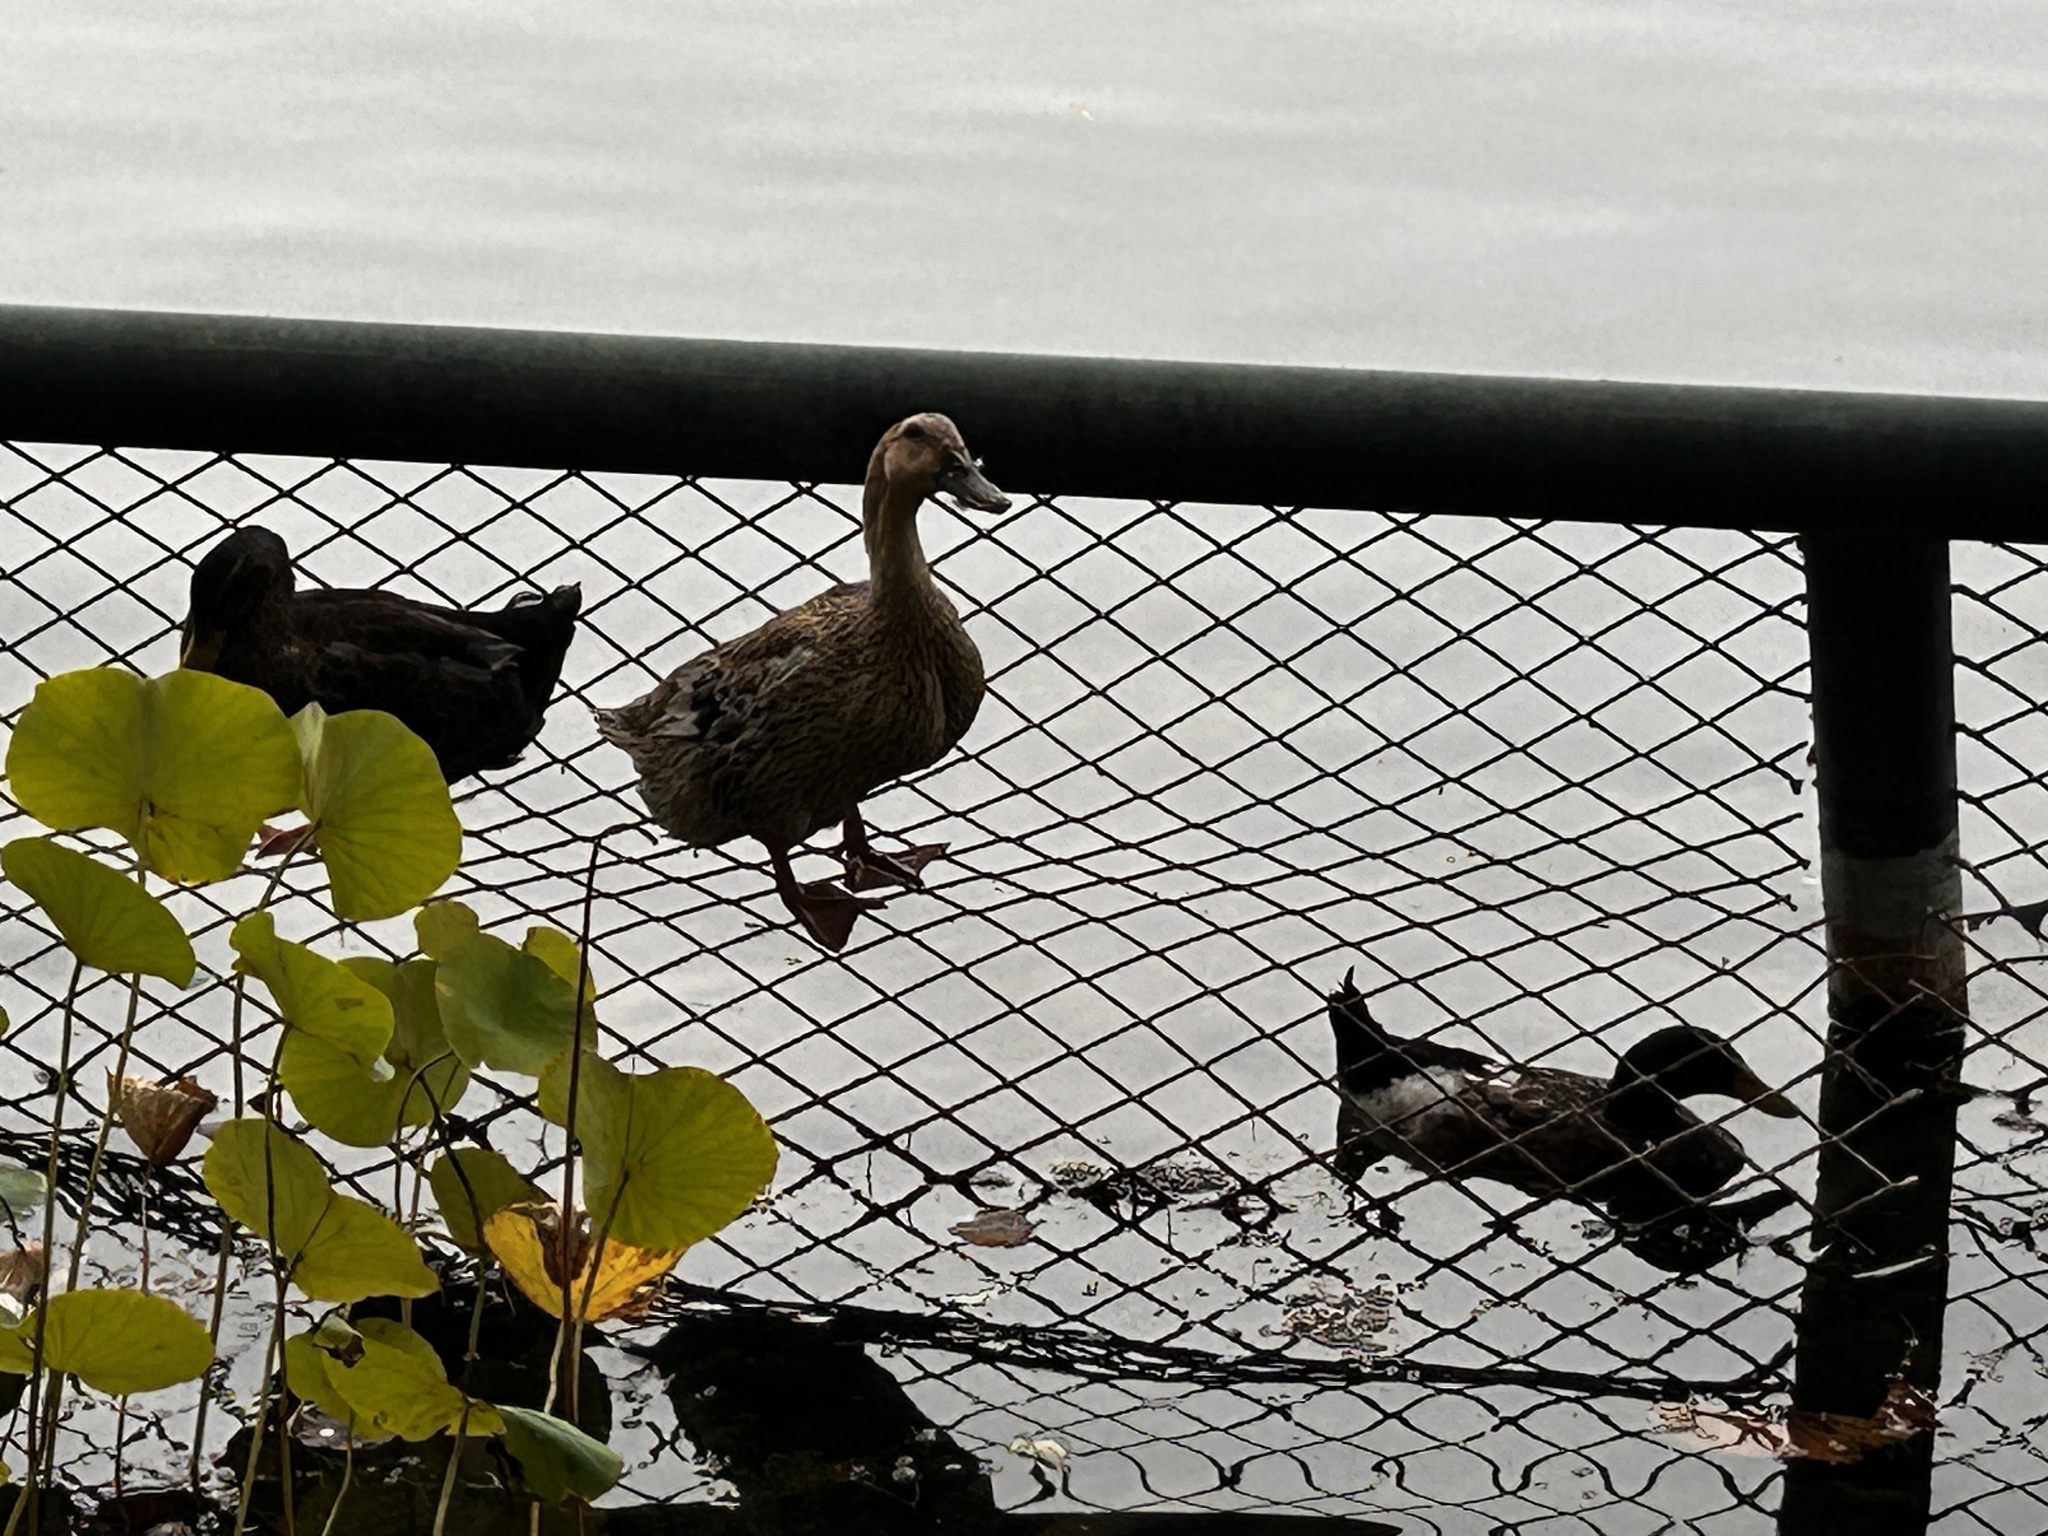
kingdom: Animalia
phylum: Chordata
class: Aves
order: Anseriformes
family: Anatidae
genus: Anas
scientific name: Anas platyrhynchos
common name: Mallard
